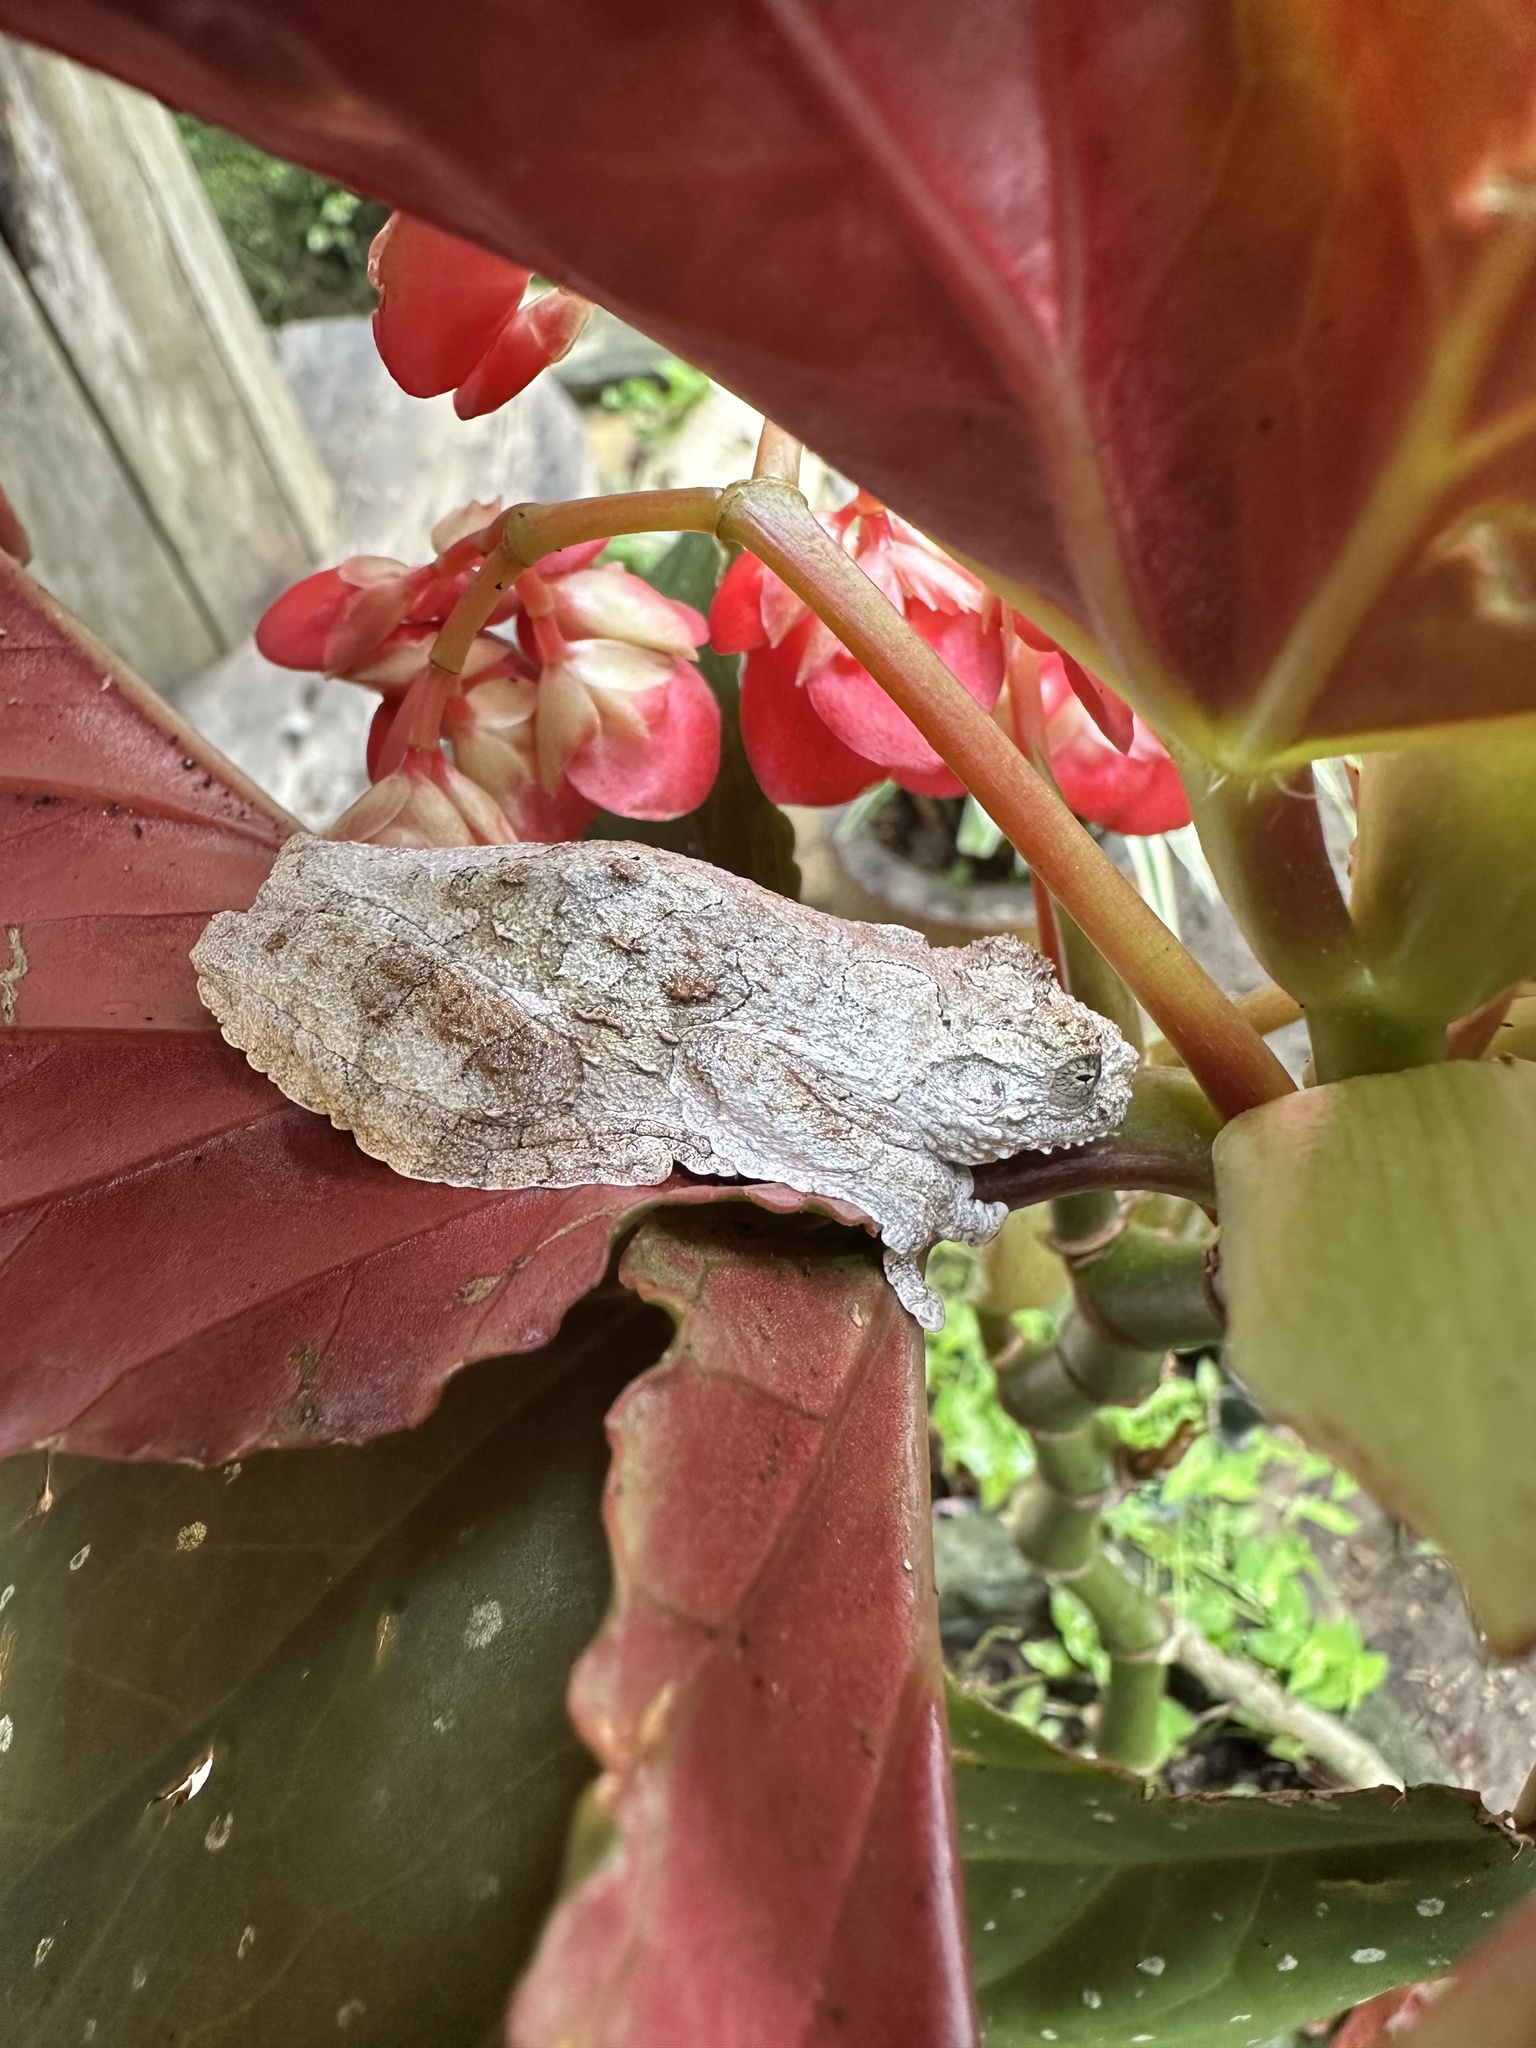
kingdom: Animalia
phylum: Chordata
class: Amphibia
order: Anura
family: Hylidae
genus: Dendropsophus
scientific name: Dendropsophus marmoratus
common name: Marbled treefrog
